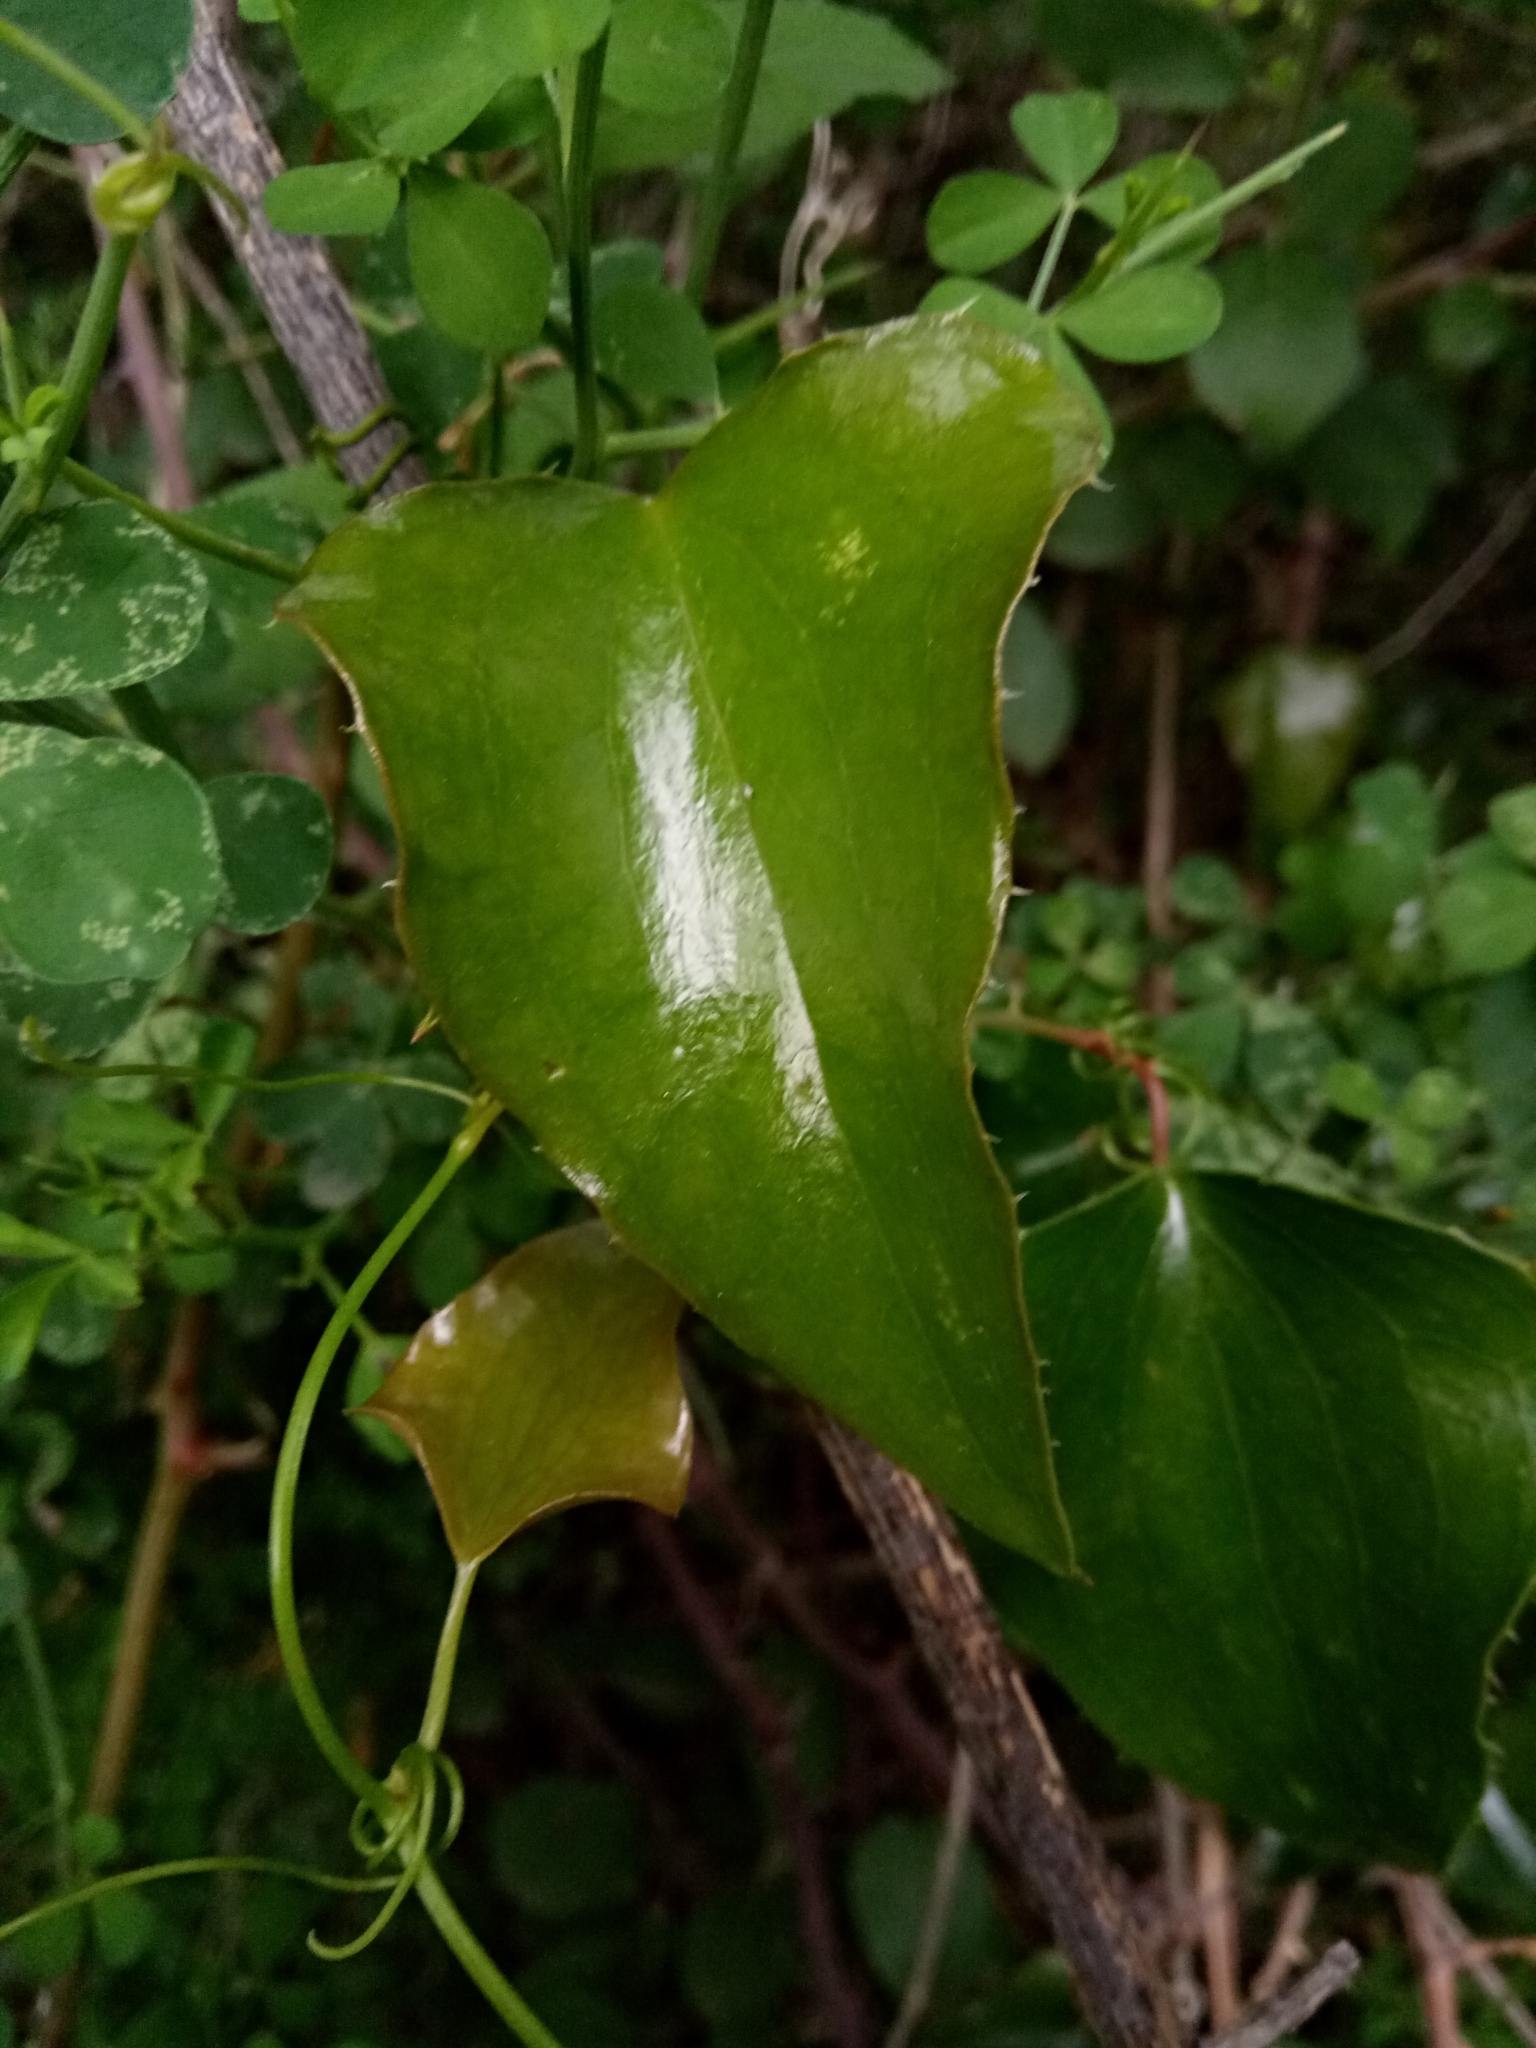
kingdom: Plantae
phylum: Tracheophyta
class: Liliopsida
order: Liliales
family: Smilacaceae
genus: Smilax
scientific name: Smilax aspera
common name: Common smilax
